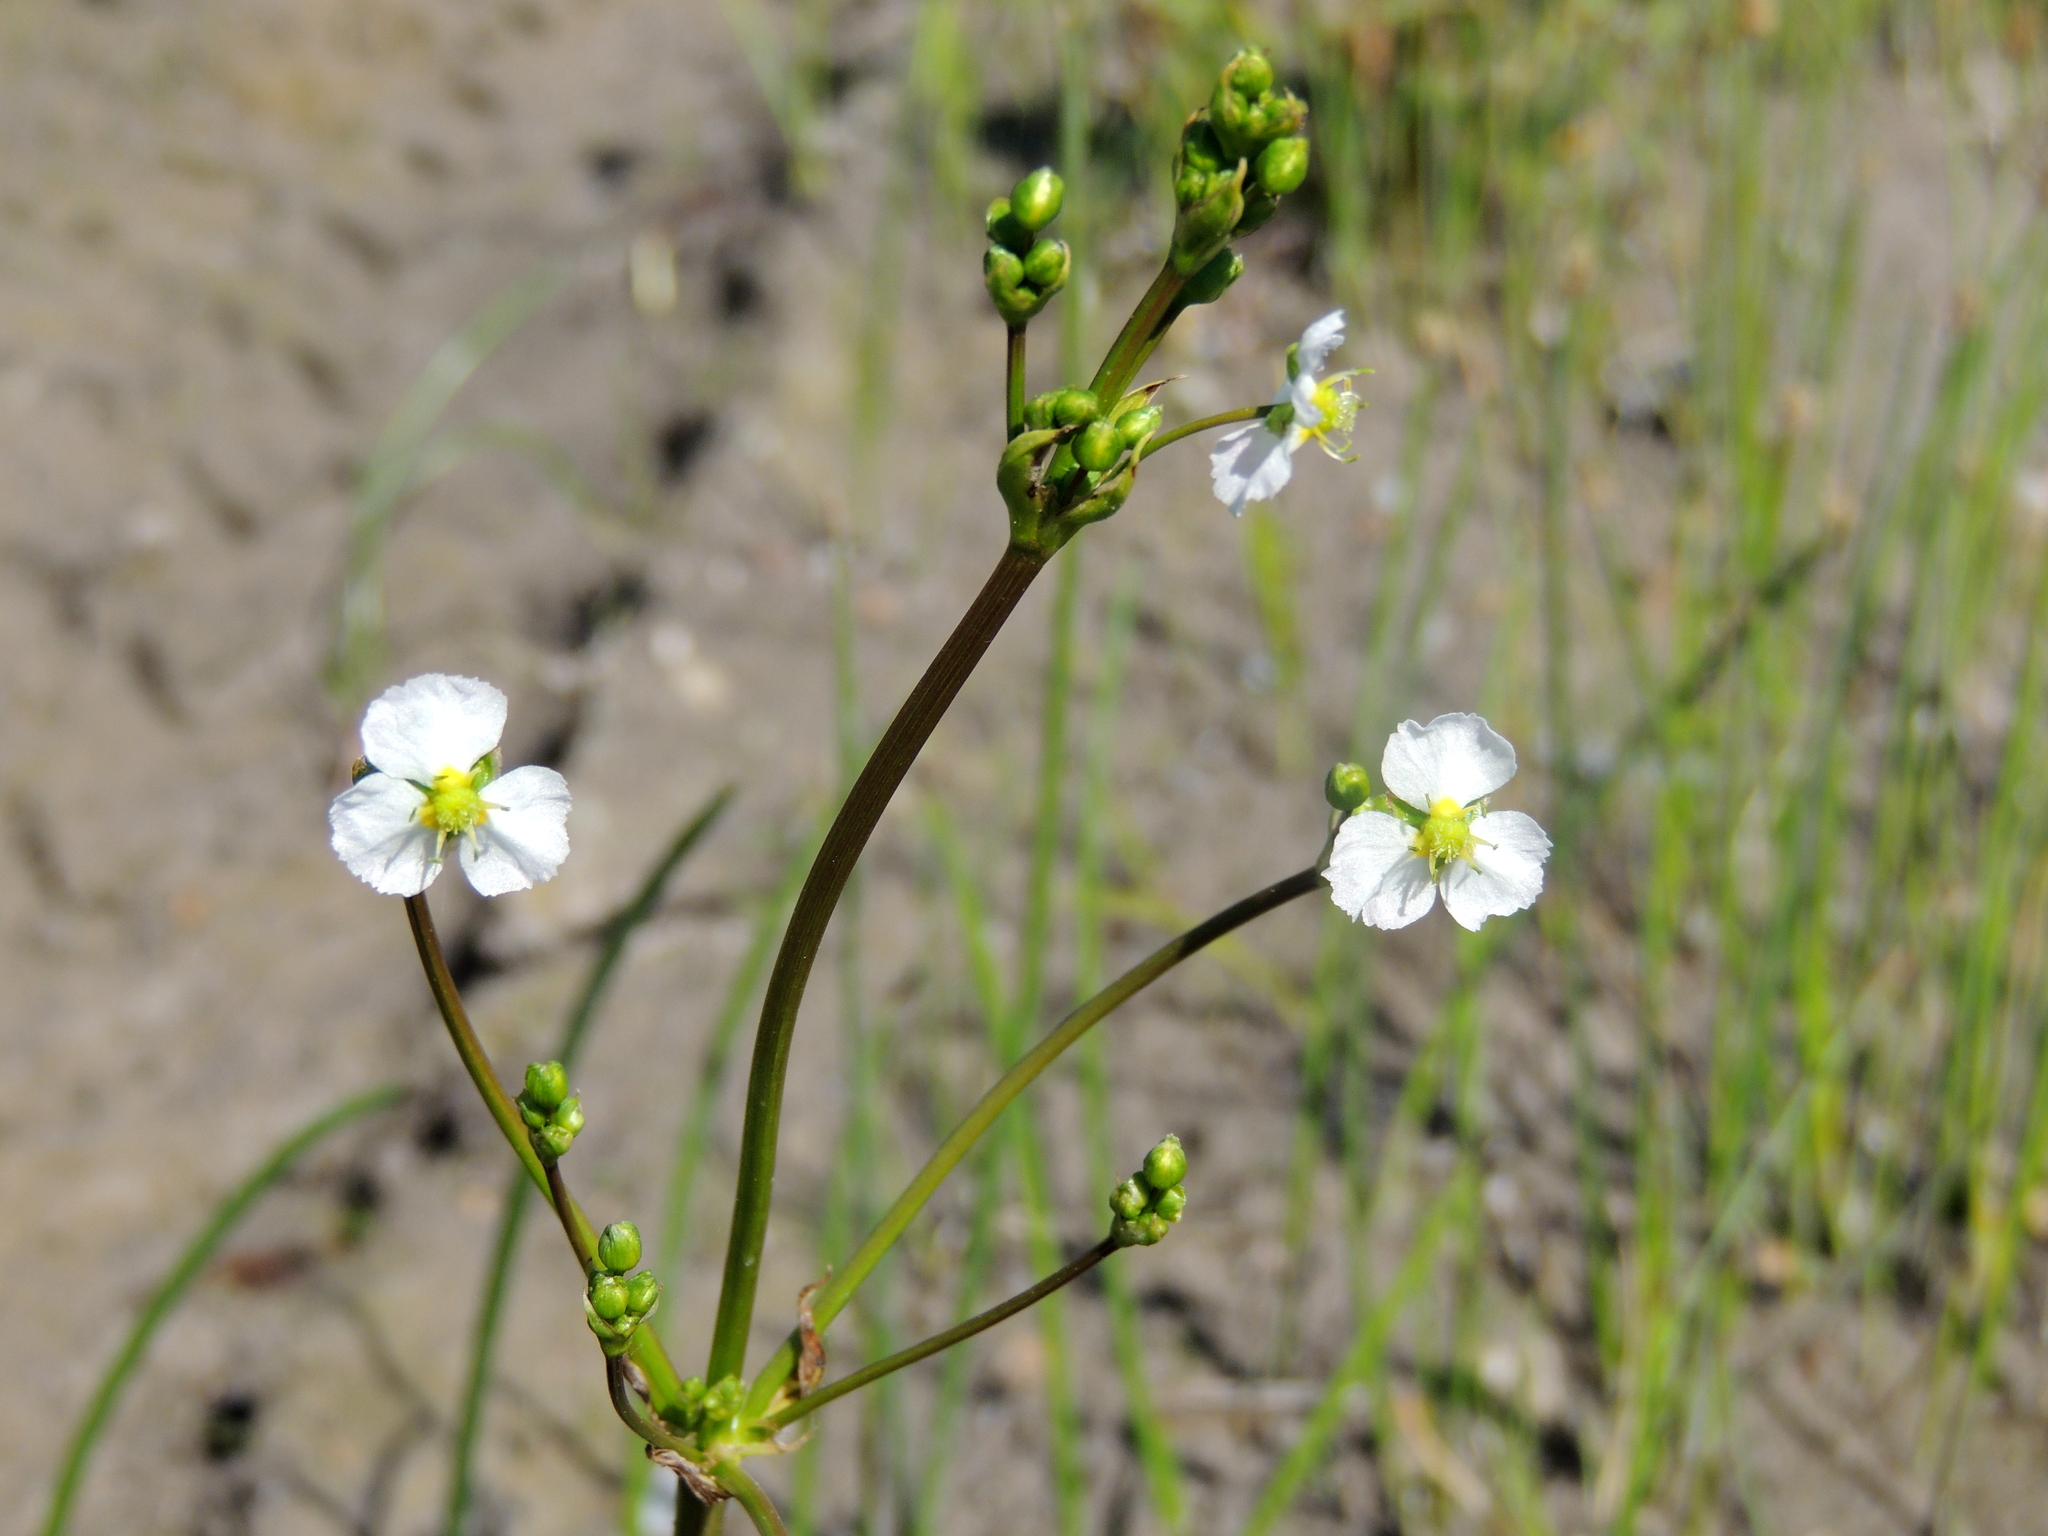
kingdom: Plantae
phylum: Tracheophyta
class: Liliopsida
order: Alismatales
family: Alismataceae
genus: Alisma
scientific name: Alisma plantago-aquatica
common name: Water-plantain
